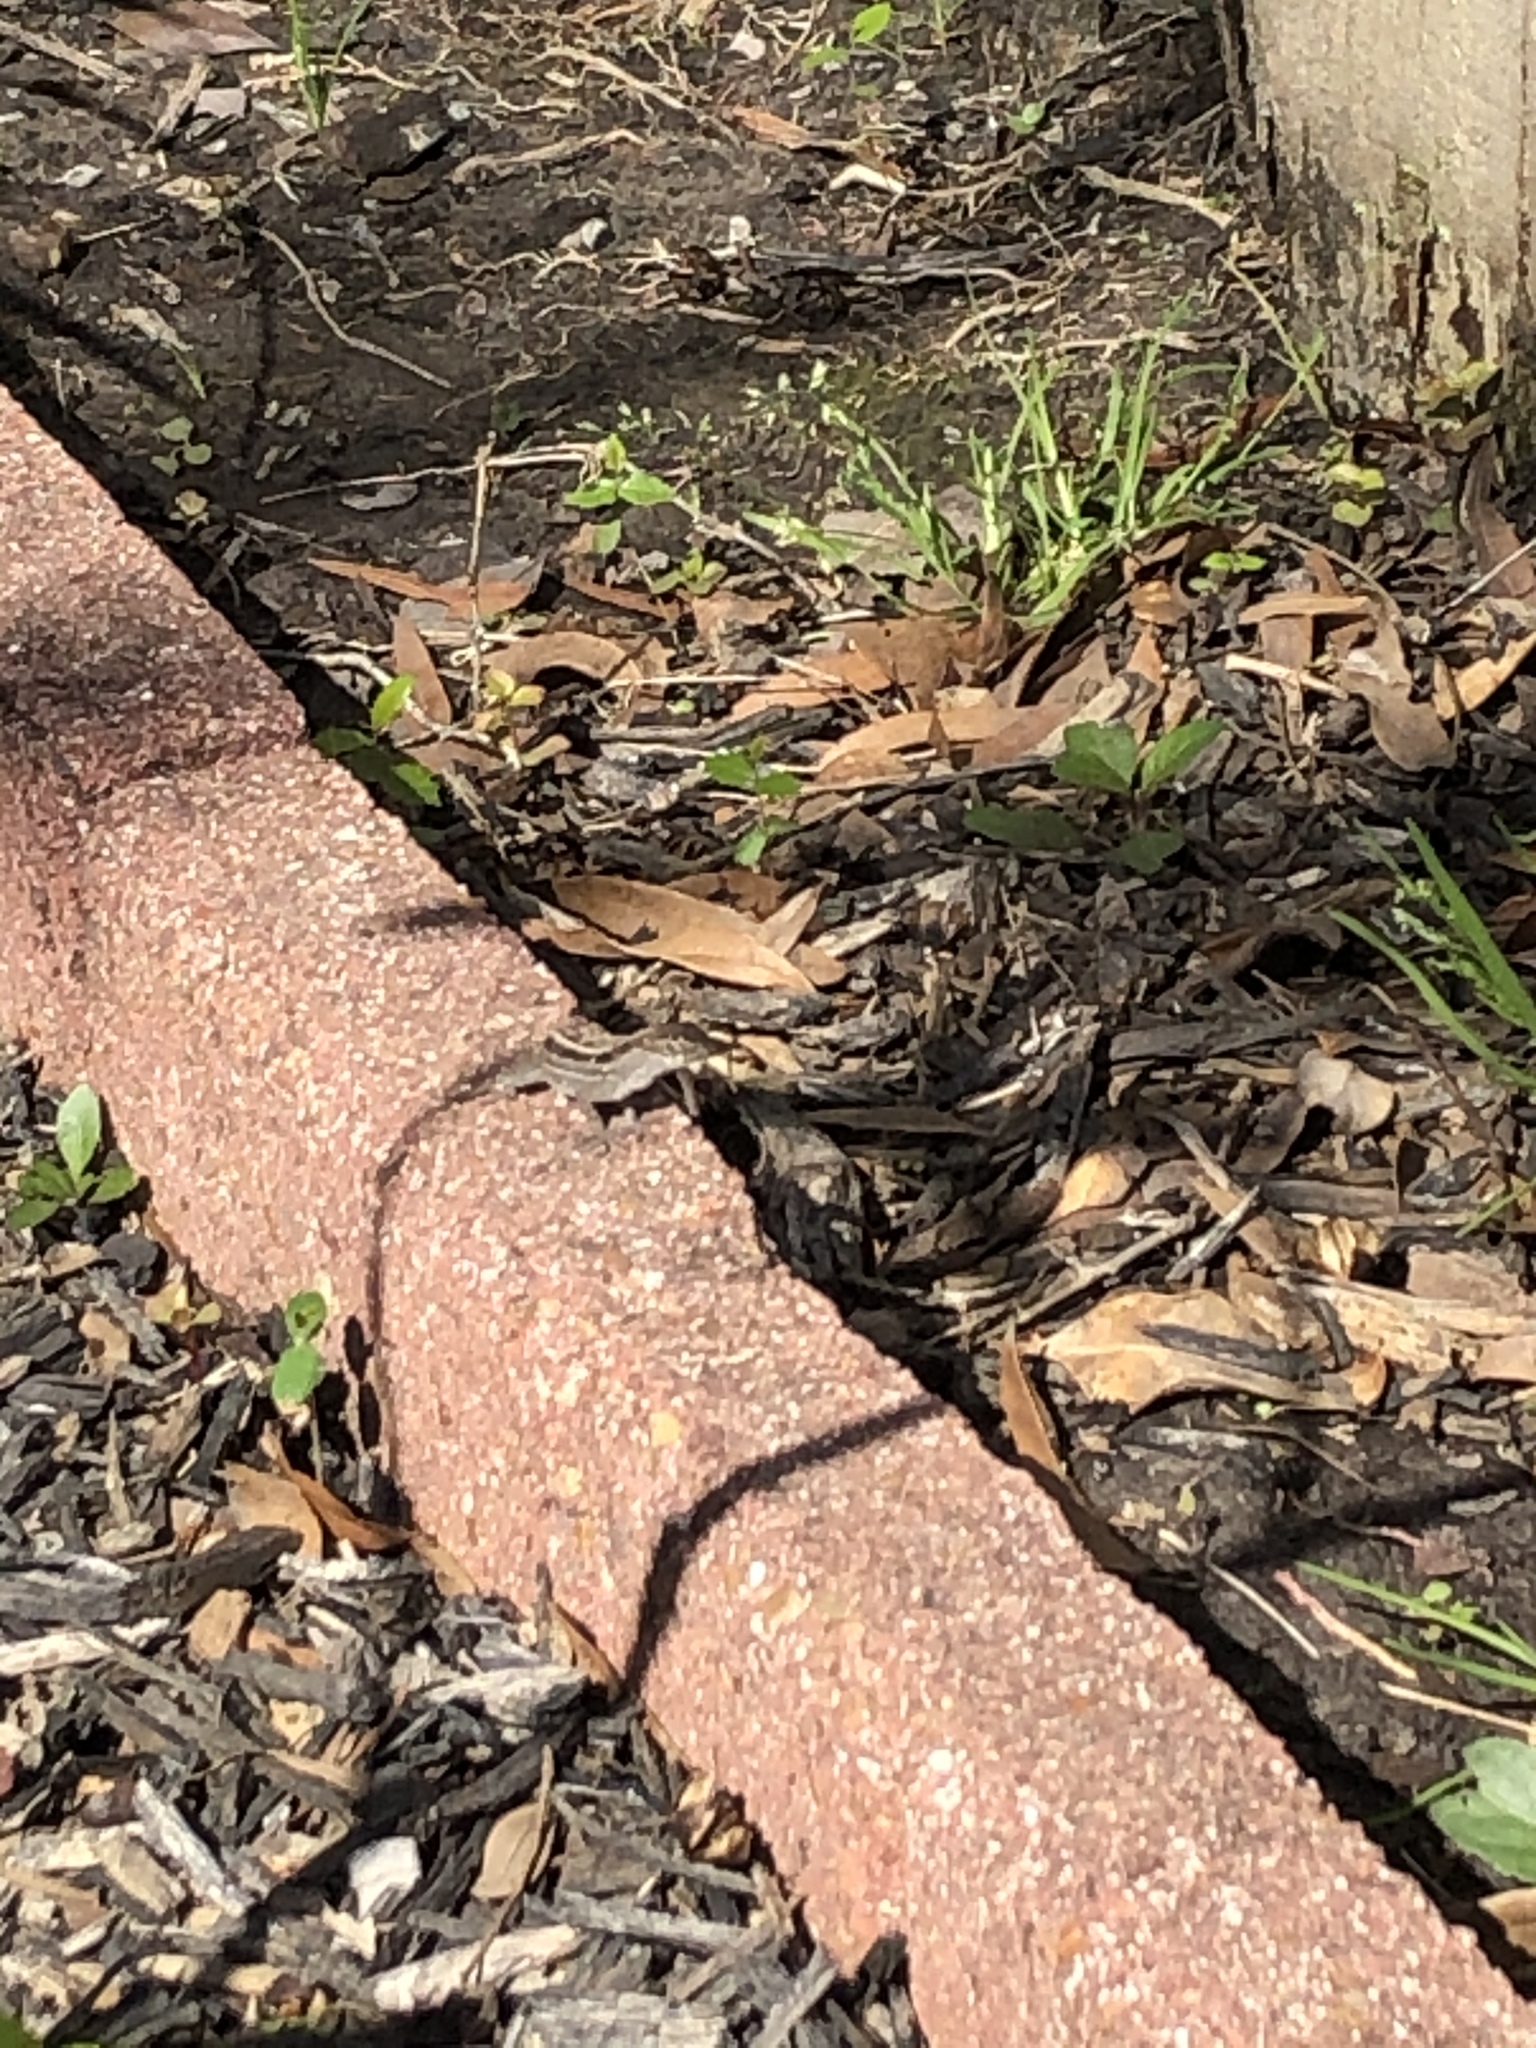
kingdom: Animalia
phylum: Chordata
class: Squamata
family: Dactyloidae
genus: Anolis
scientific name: Anolis sagrei
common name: Brown anole
